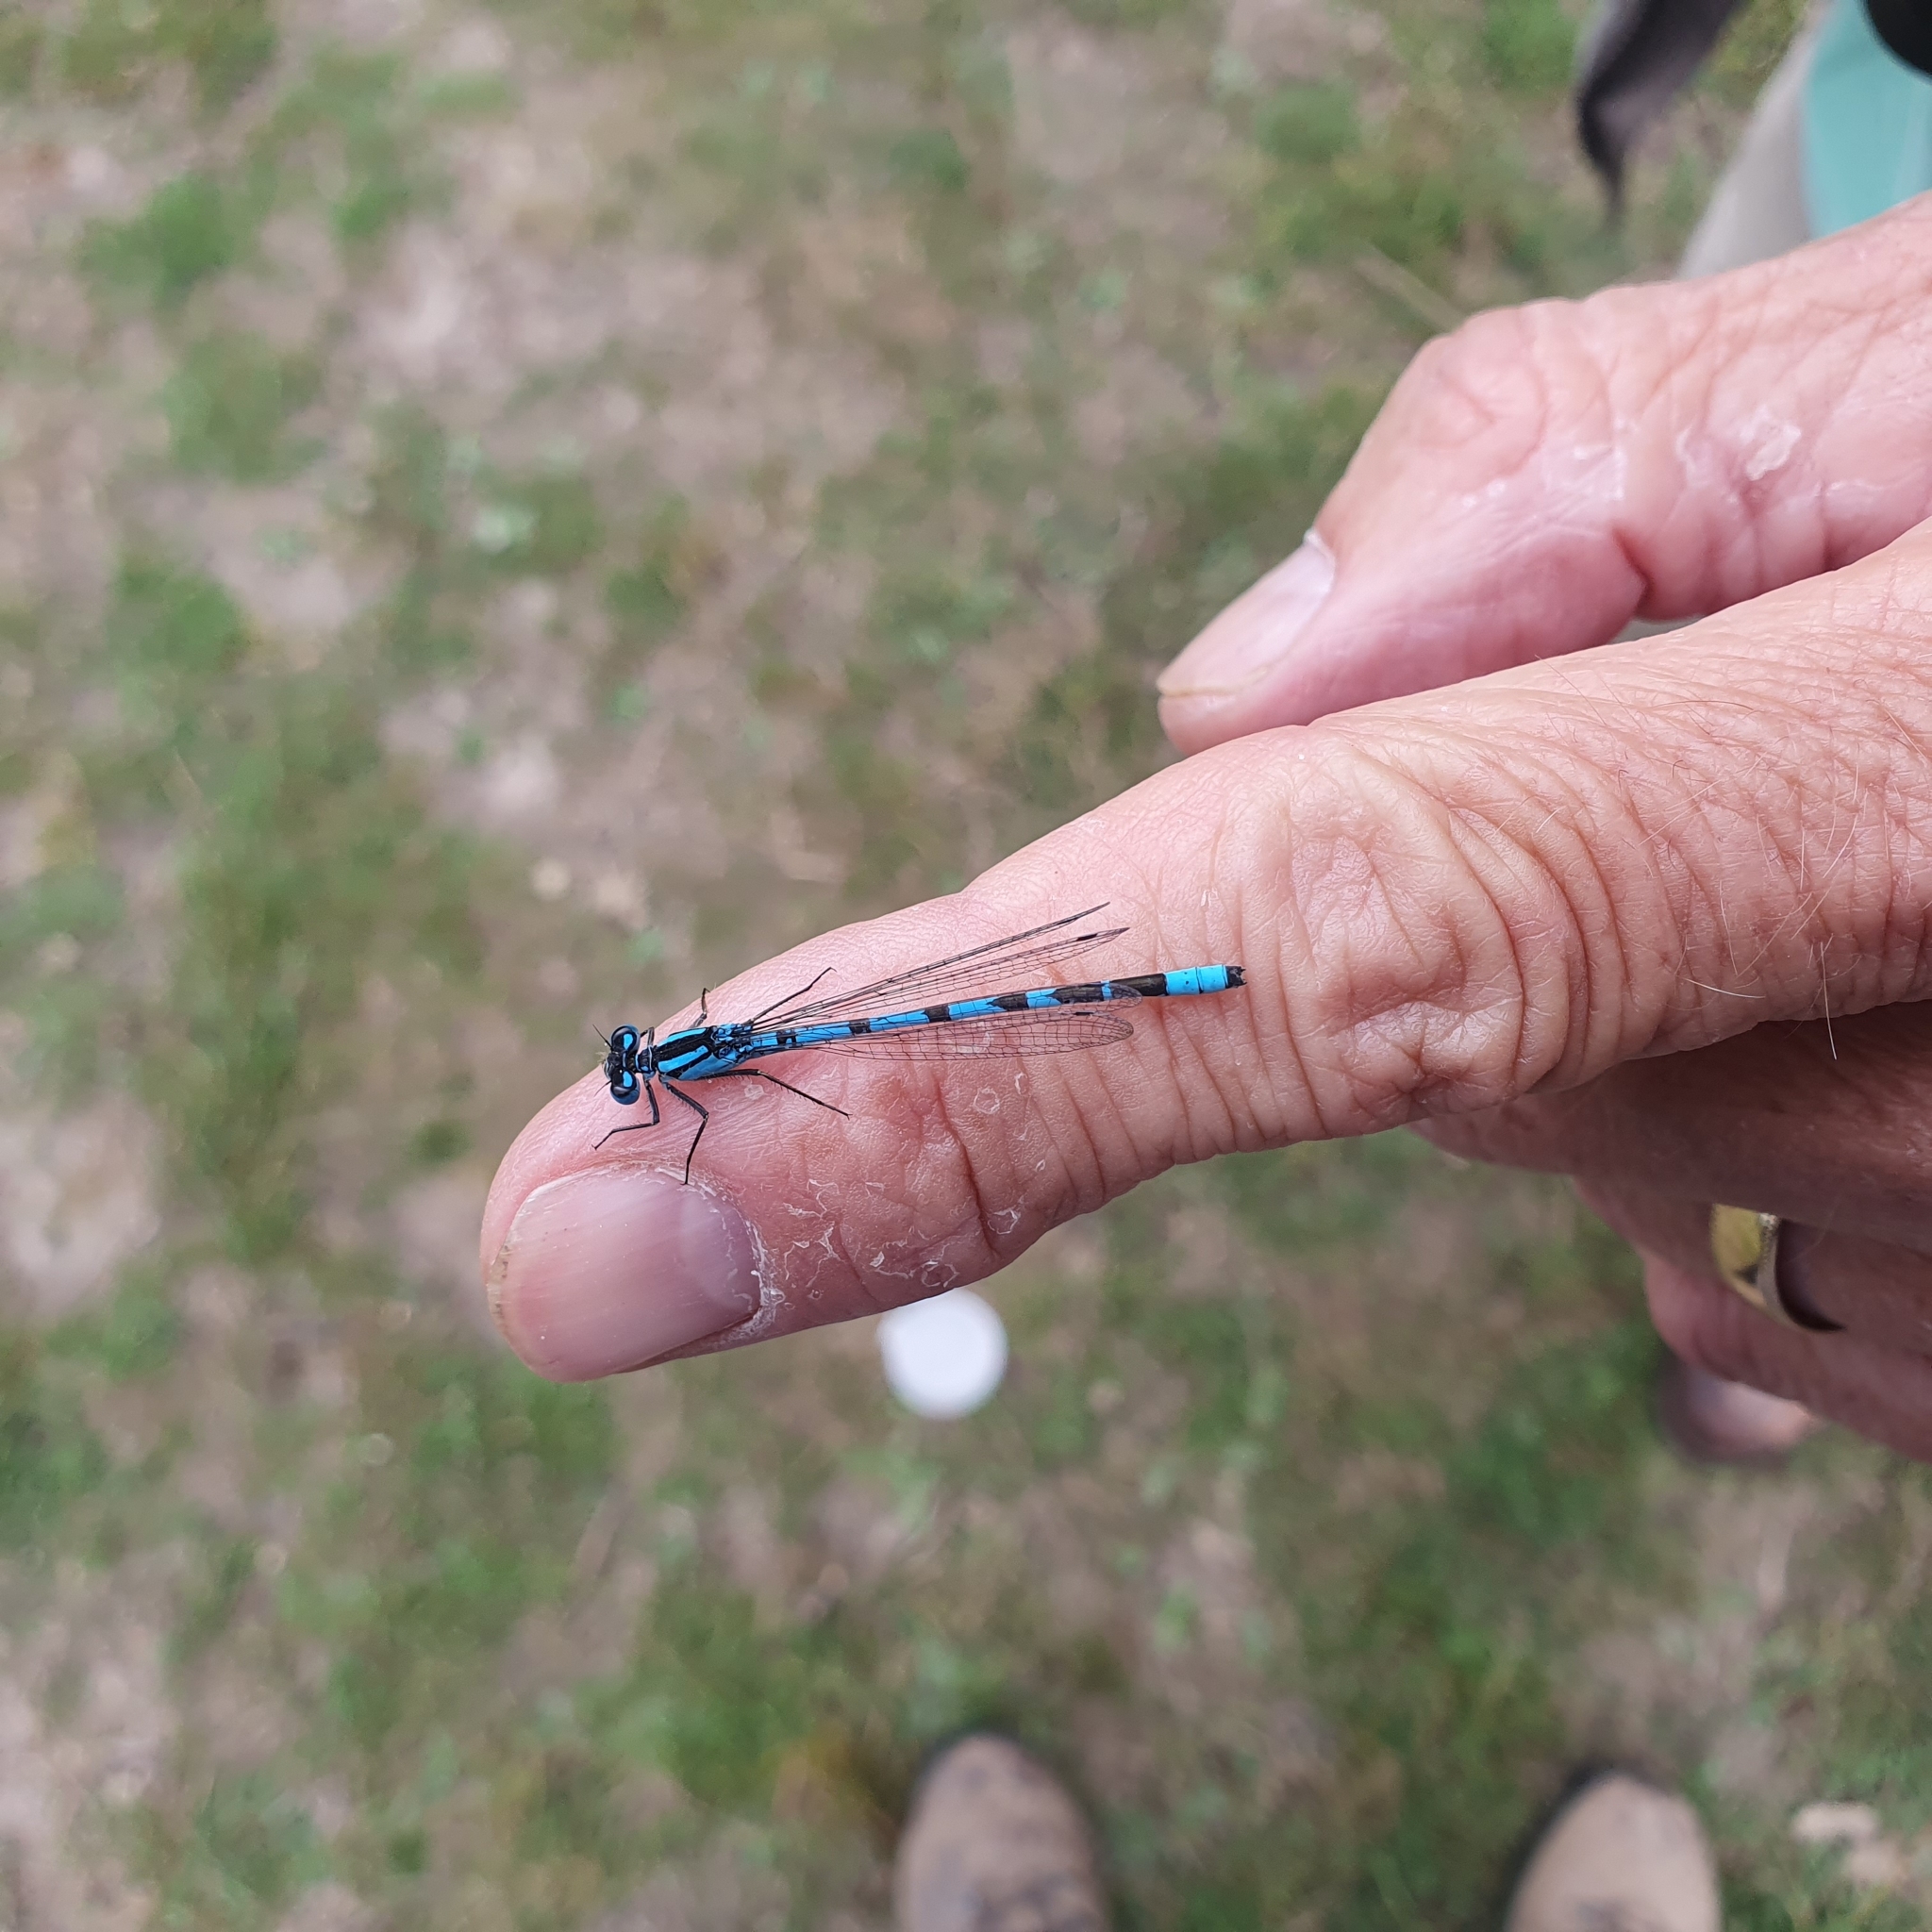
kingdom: Animalia
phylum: Arthropoda
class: Insecta
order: Odonata
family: Coenagrionidae
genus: Enallagma
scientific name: Enallagma cyathigerum
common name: Common blue damselfly
